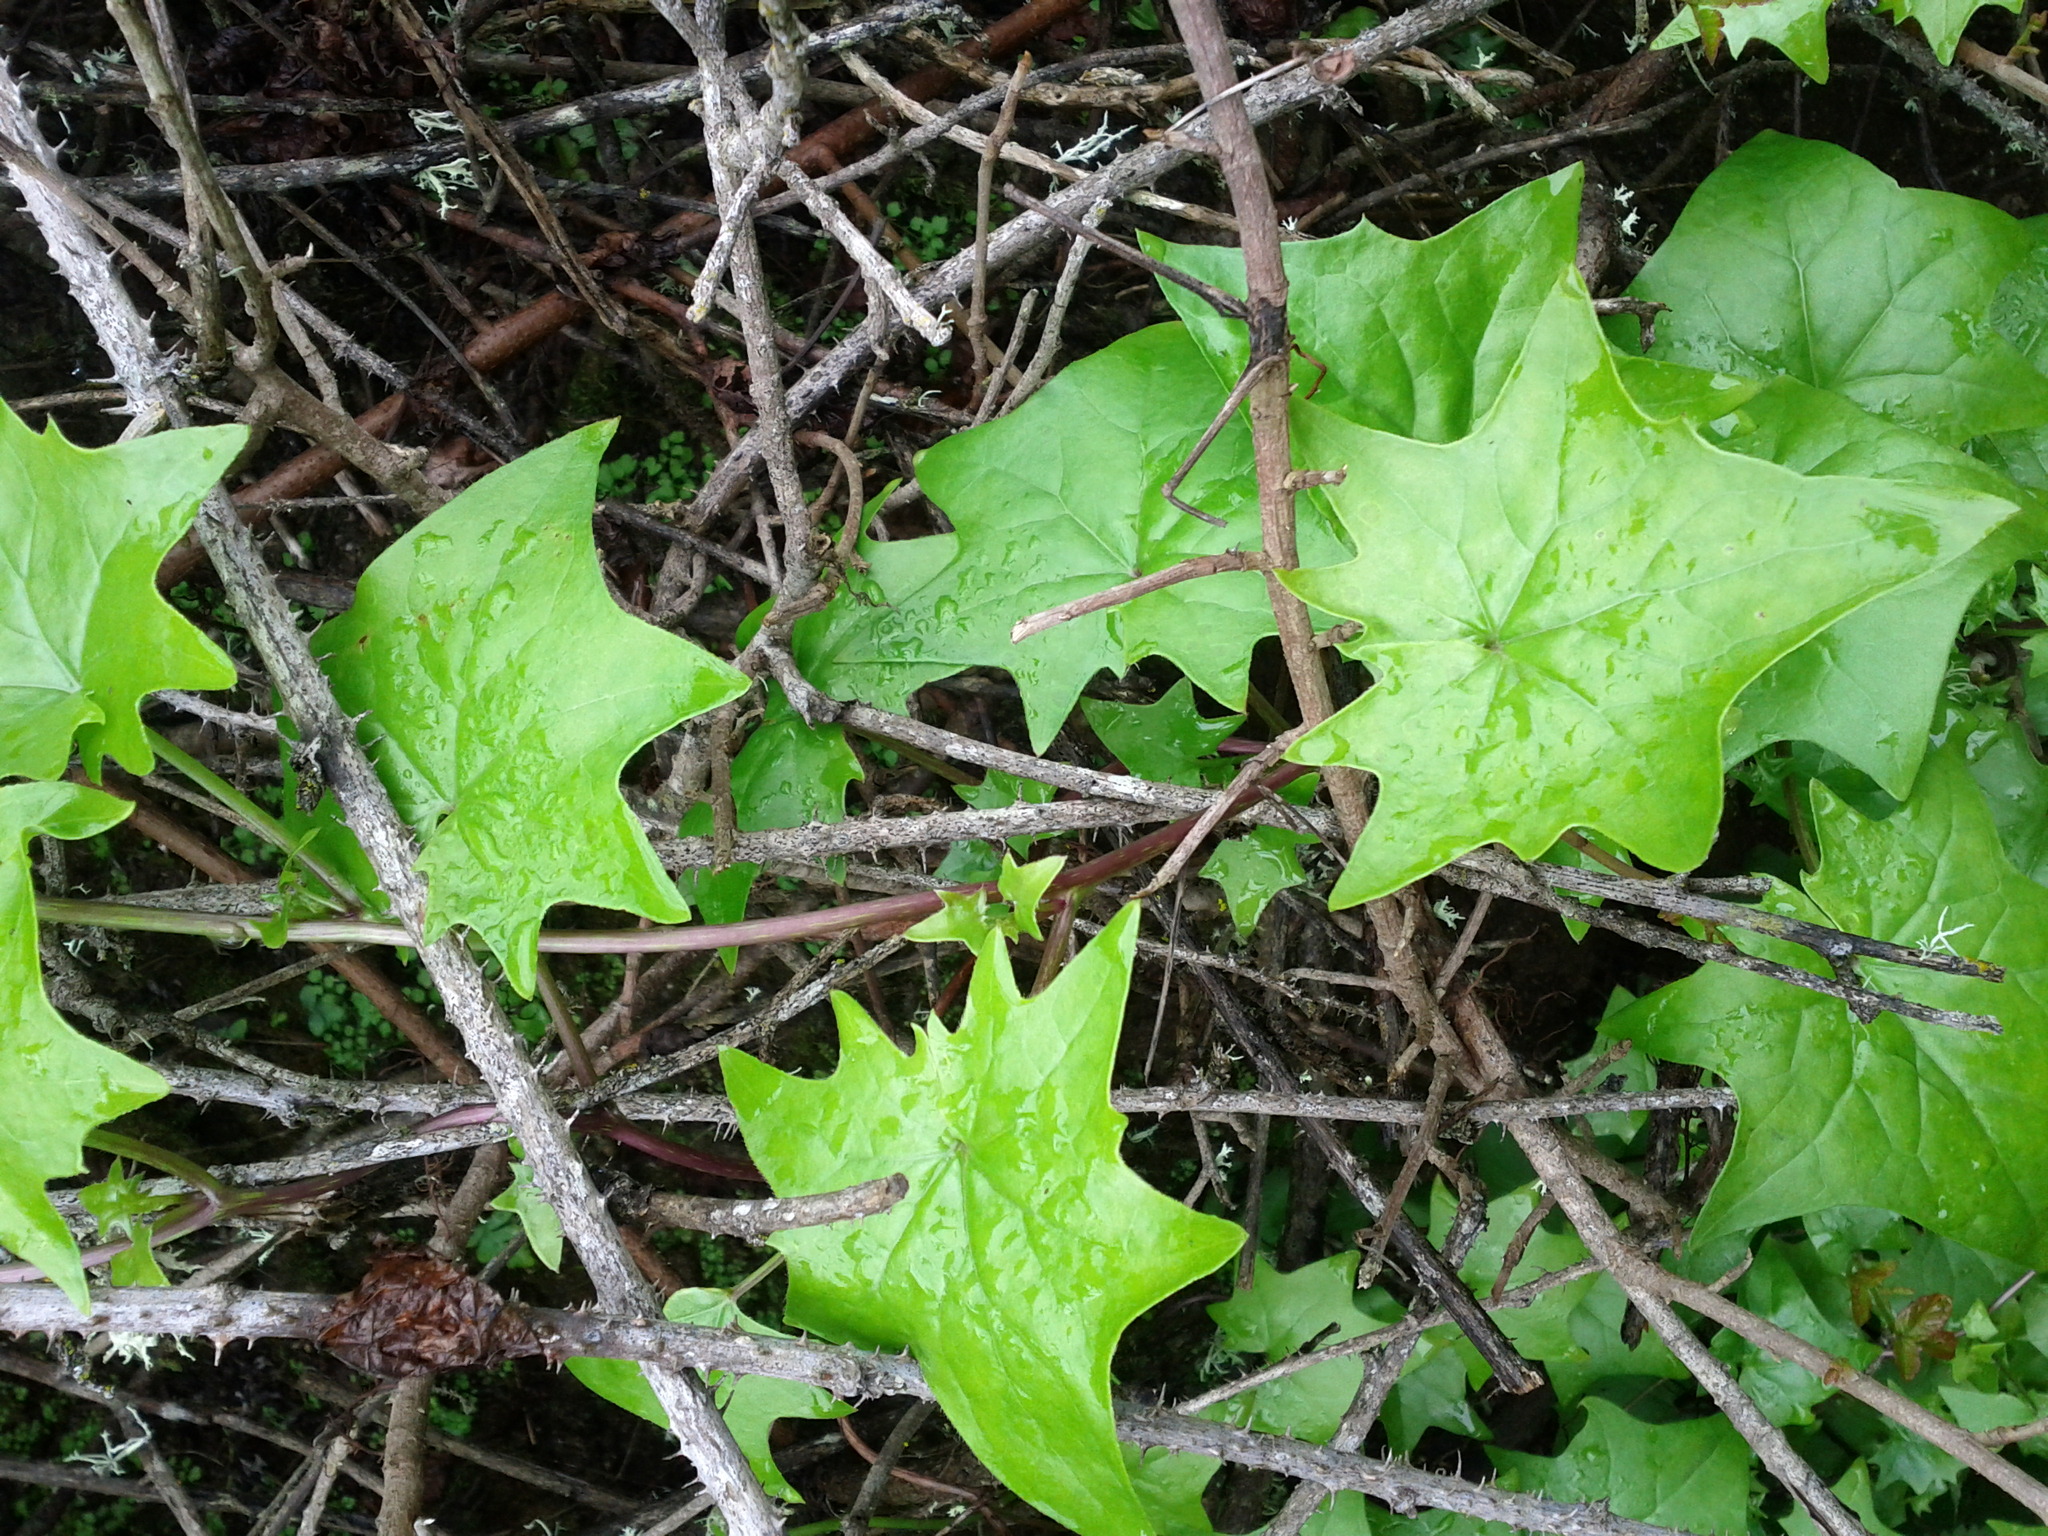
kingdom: Plantae
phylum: Tracheophyta
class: Magnoliopsida
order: Asterales
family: Asteraceae
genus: Delairea
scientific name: Delairea odorata
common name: Cape-ivy
